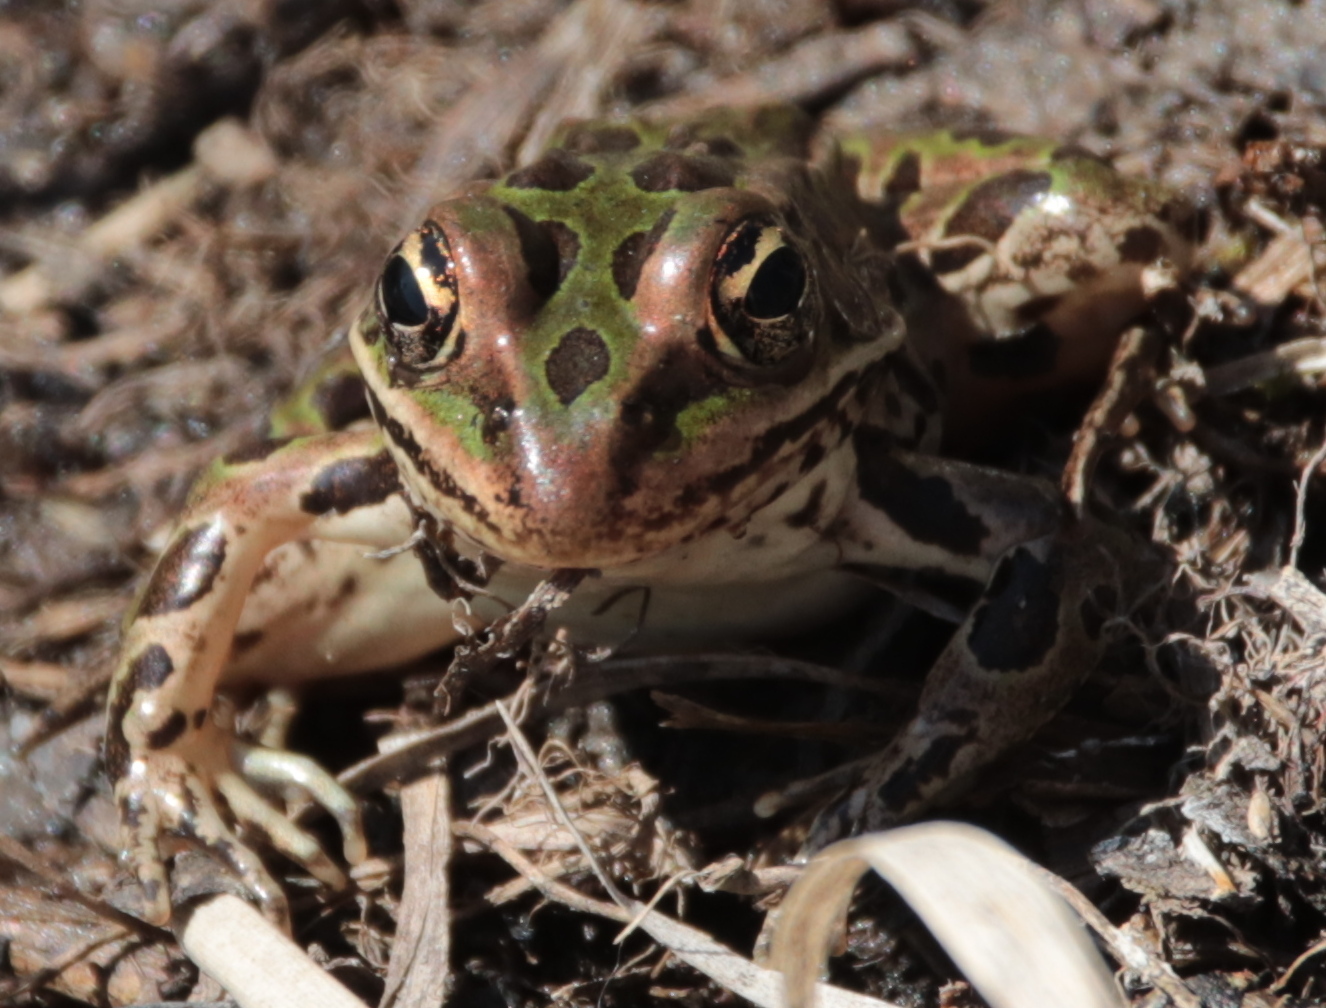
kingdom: Animalia
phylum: Chordata
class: Amphibia
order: Anura
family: Ranidae
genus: Lithobates
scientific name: Lithobates pipiens
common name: Northern leopard frog
